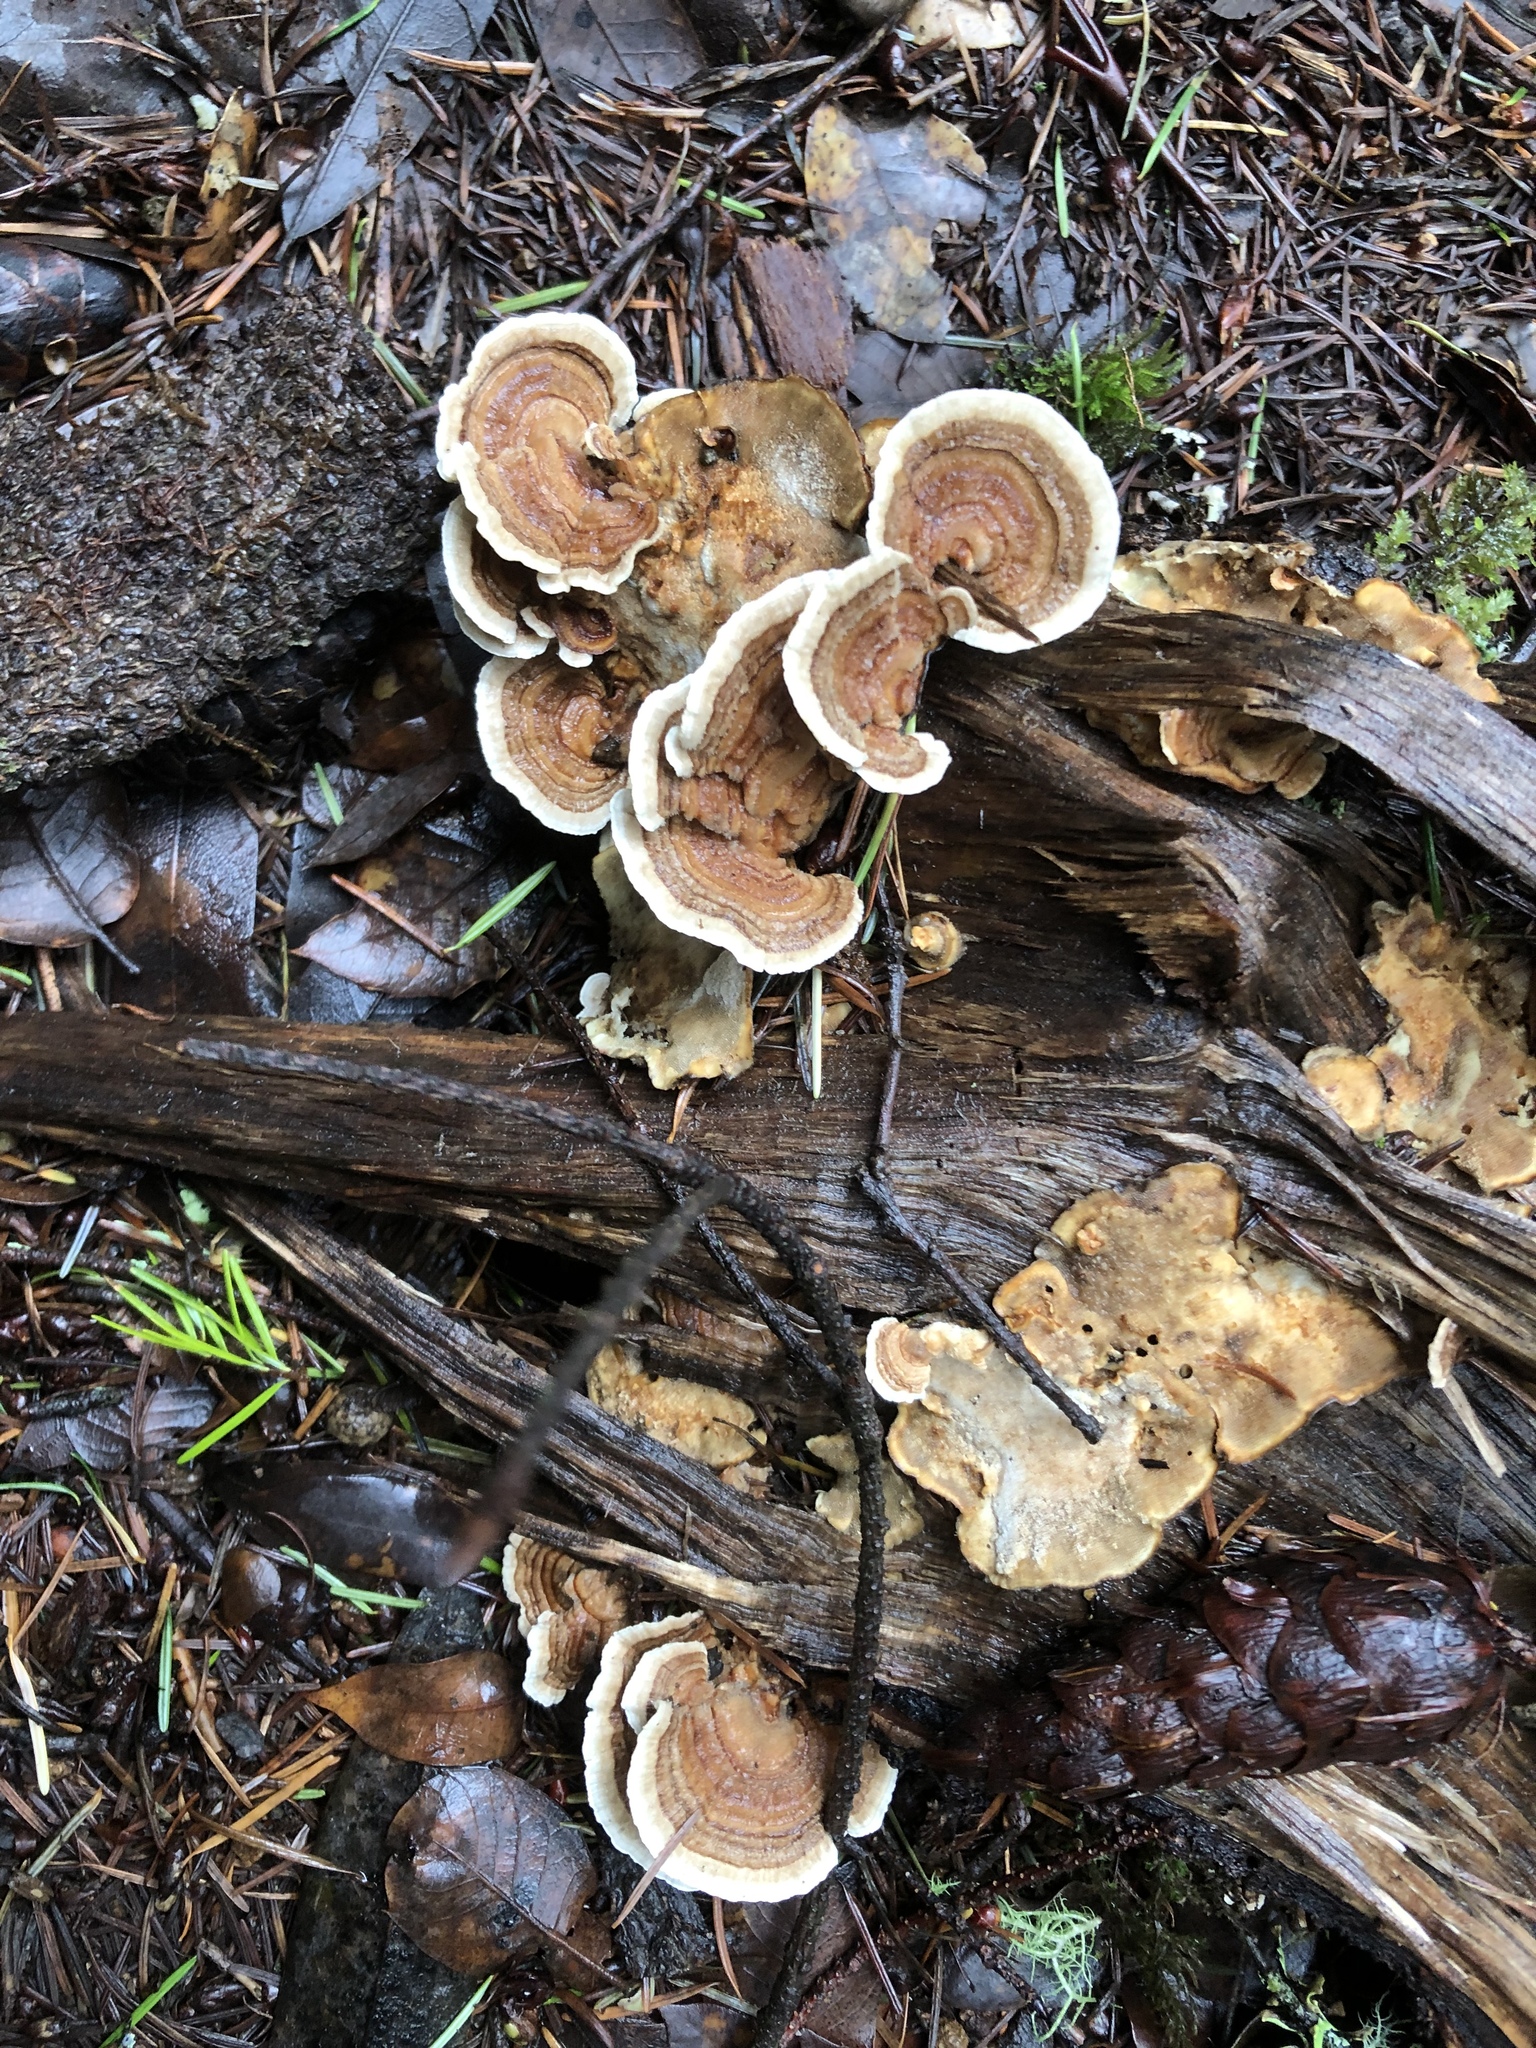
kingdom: Fungi
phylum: Basidiomycota
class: Agaricomycetes
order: Polyporales
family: Polyporaceae
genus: Trametes
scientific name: Trametes versicolor
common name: Turkeytail
